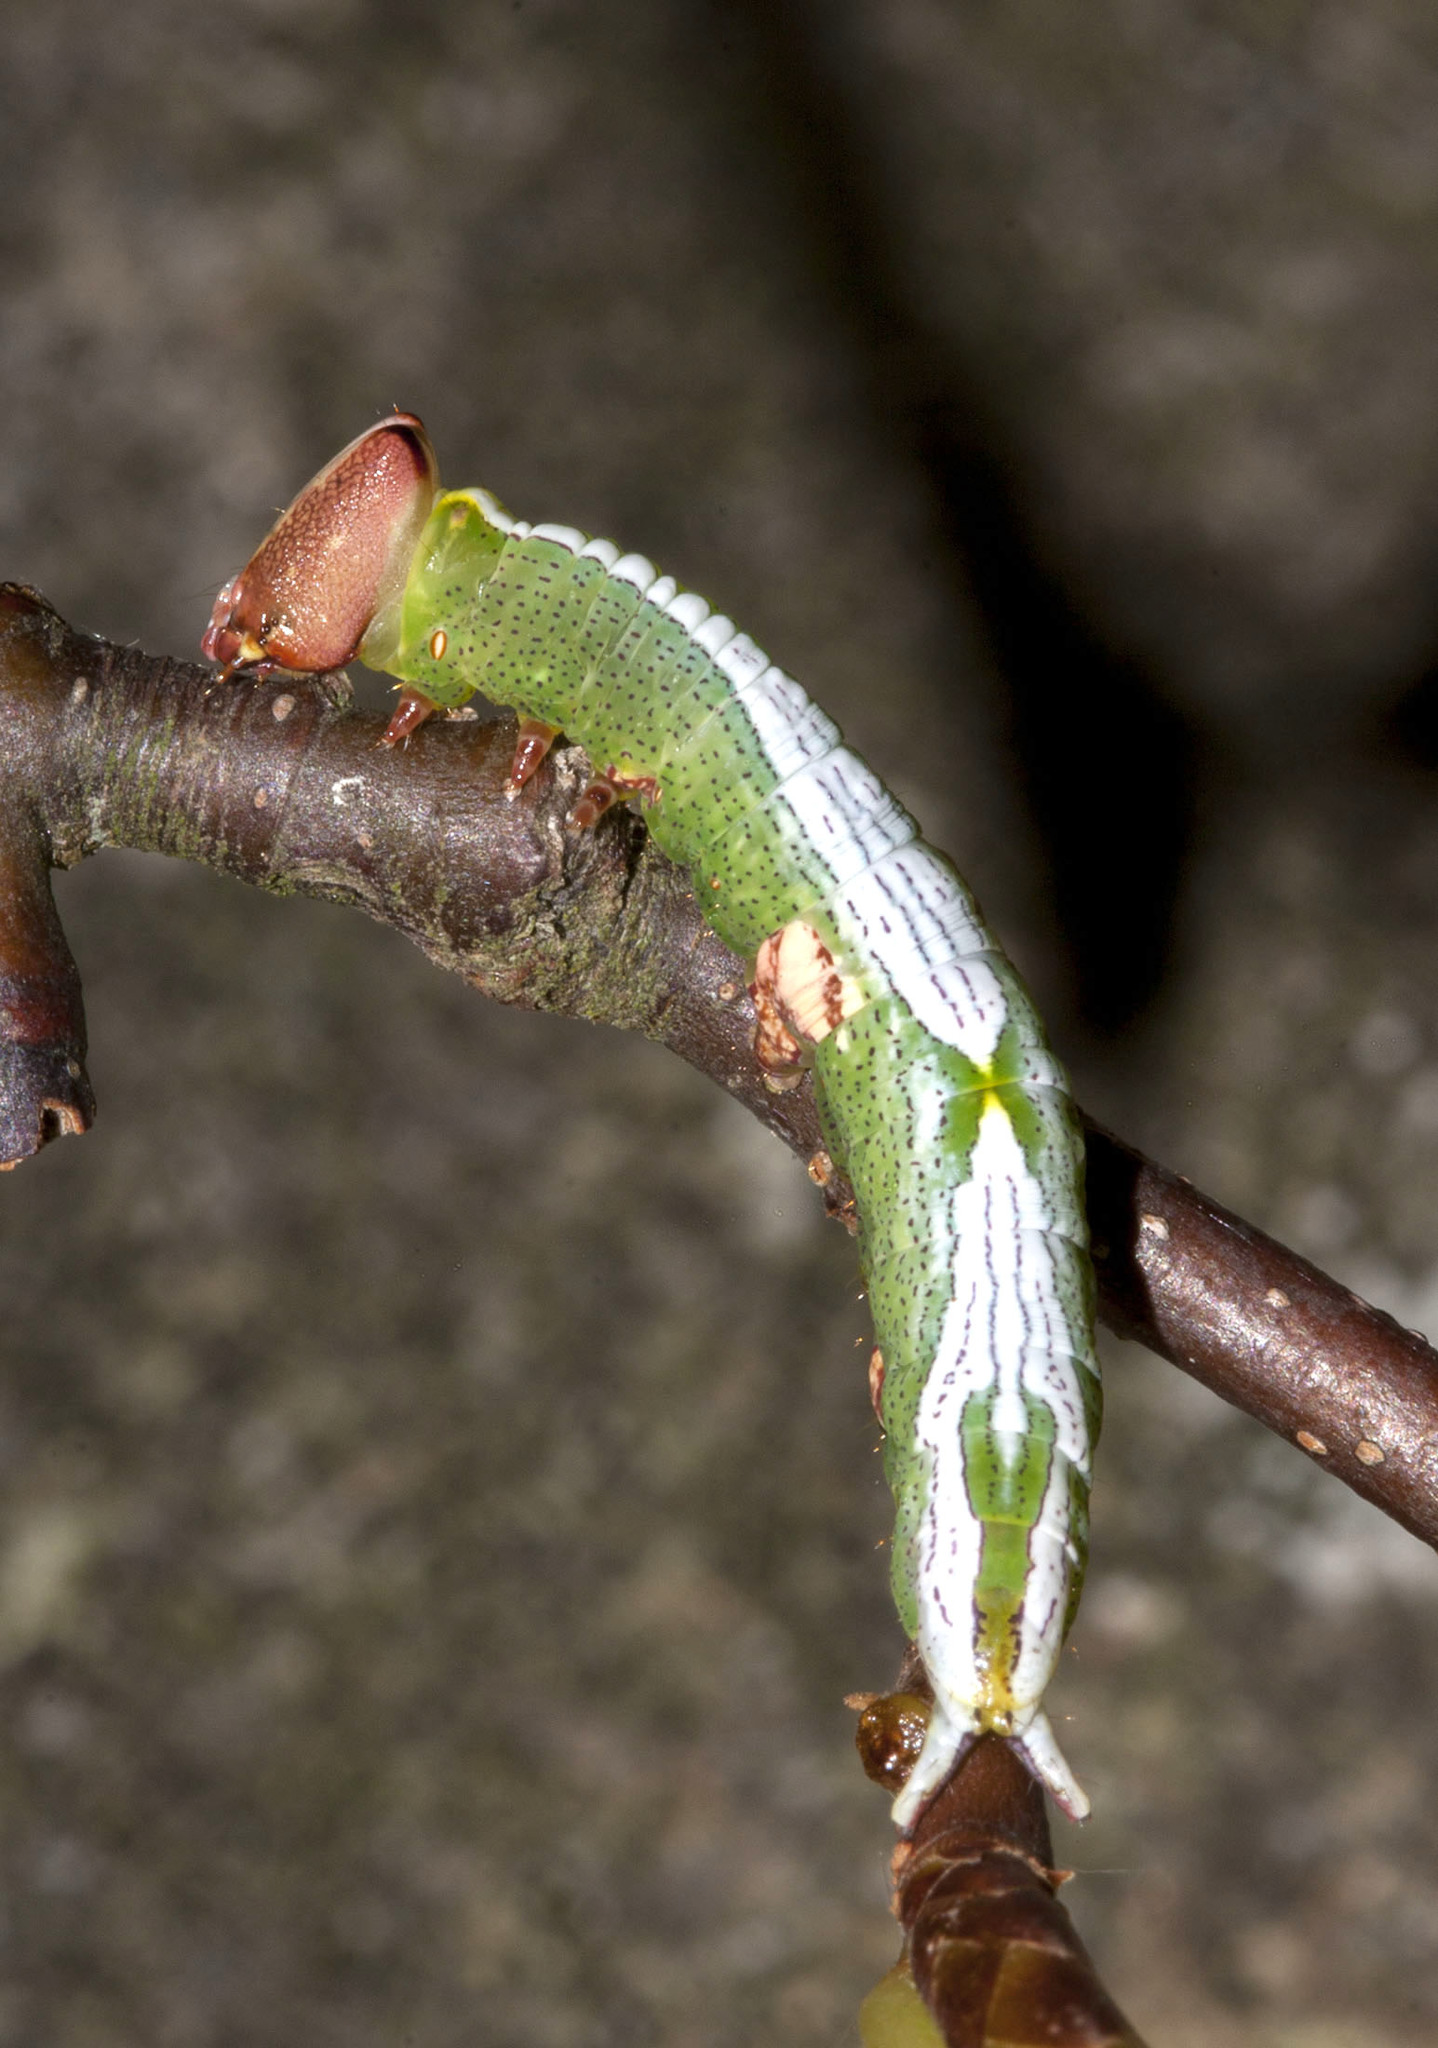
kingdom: Animalia
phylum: Arthropoda
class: Insecta
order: Lepidoptera
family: Notodontidae
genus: Disphragis
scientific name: Disphragis Cecrita biundata
